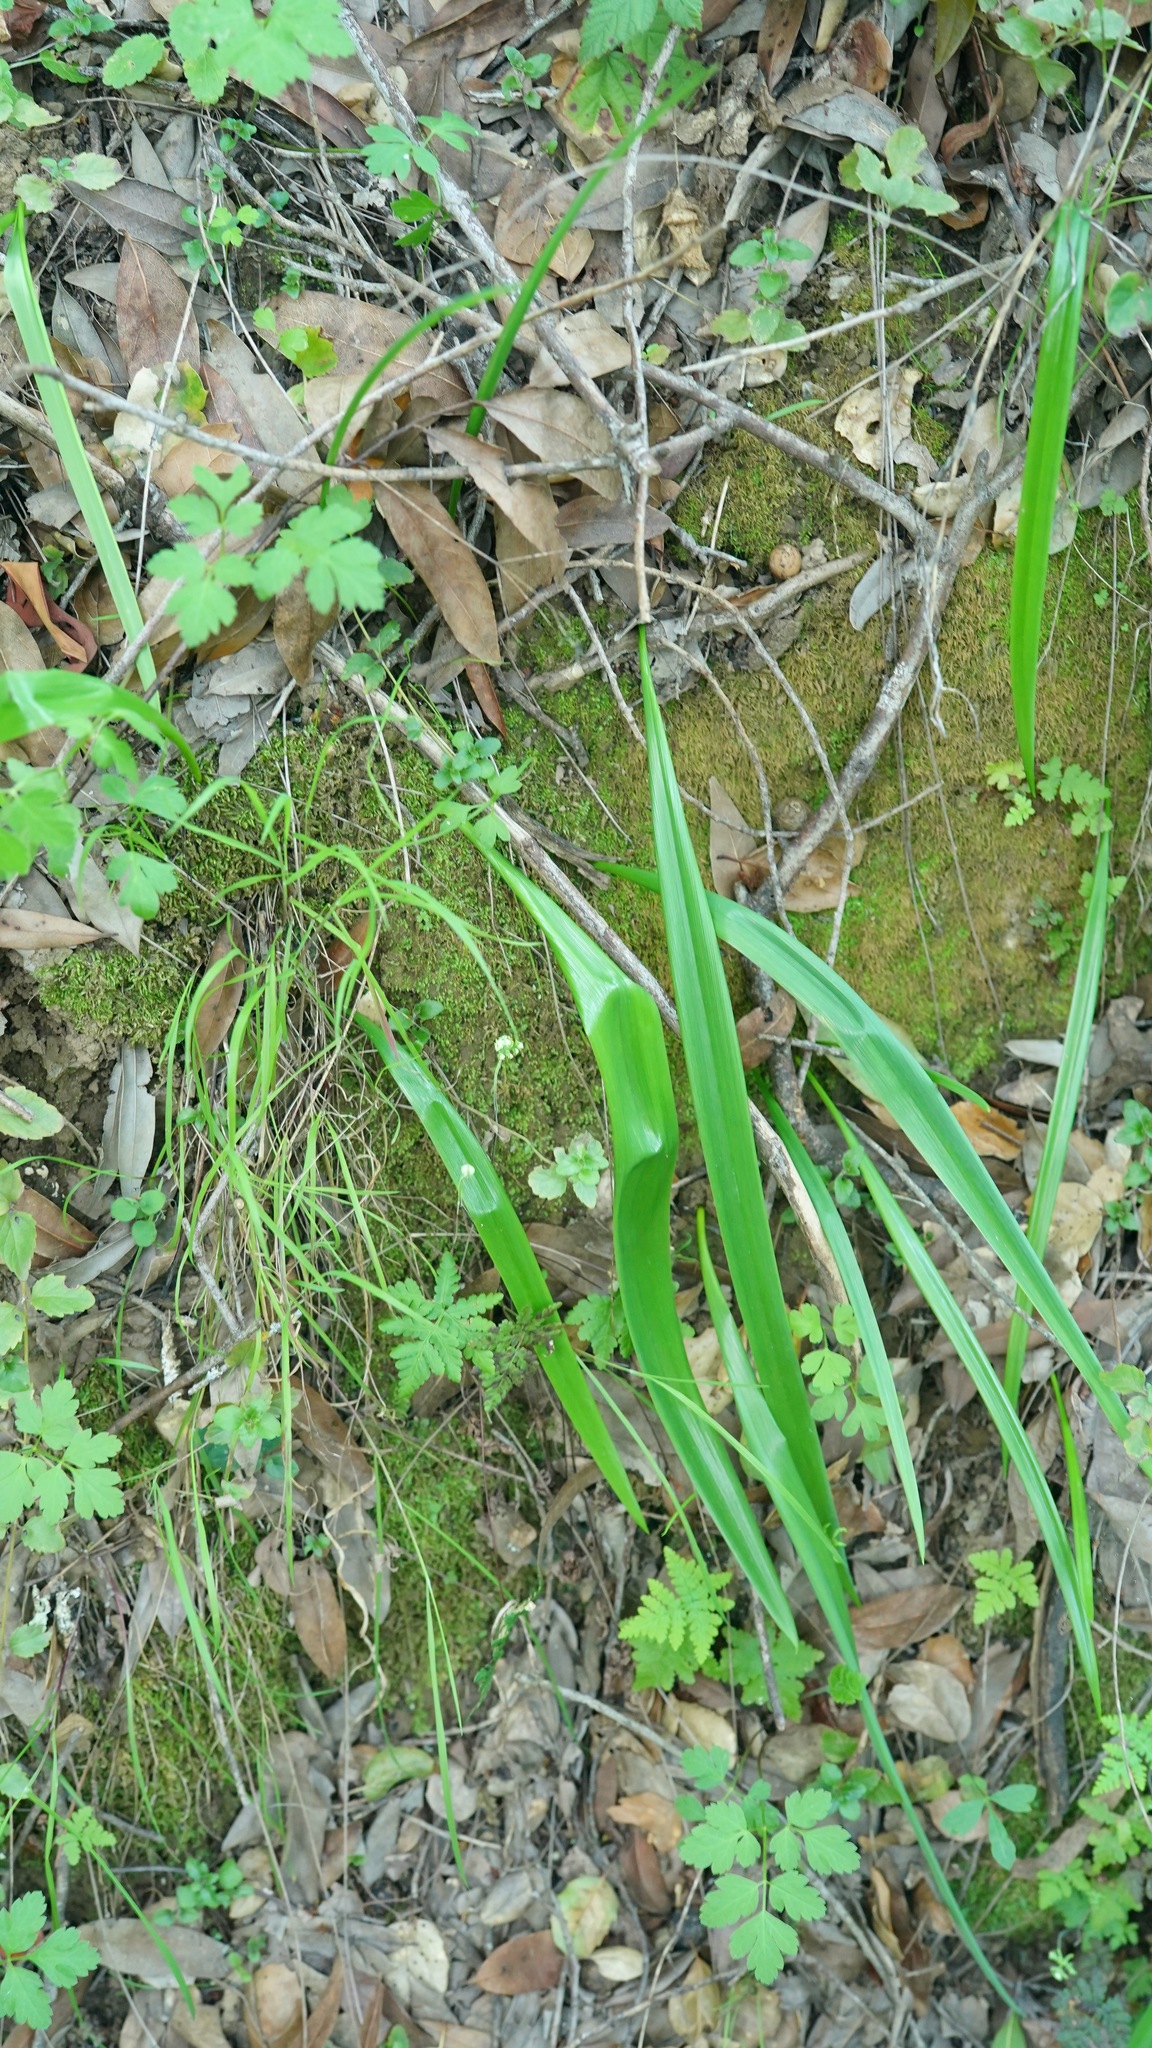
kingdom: Plantae
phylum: Tracheophyta
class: Liliopsida
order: Liliales
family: Liliaceae
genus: Calochortus
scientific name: Calochortus albus
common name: Fairy-lantern
